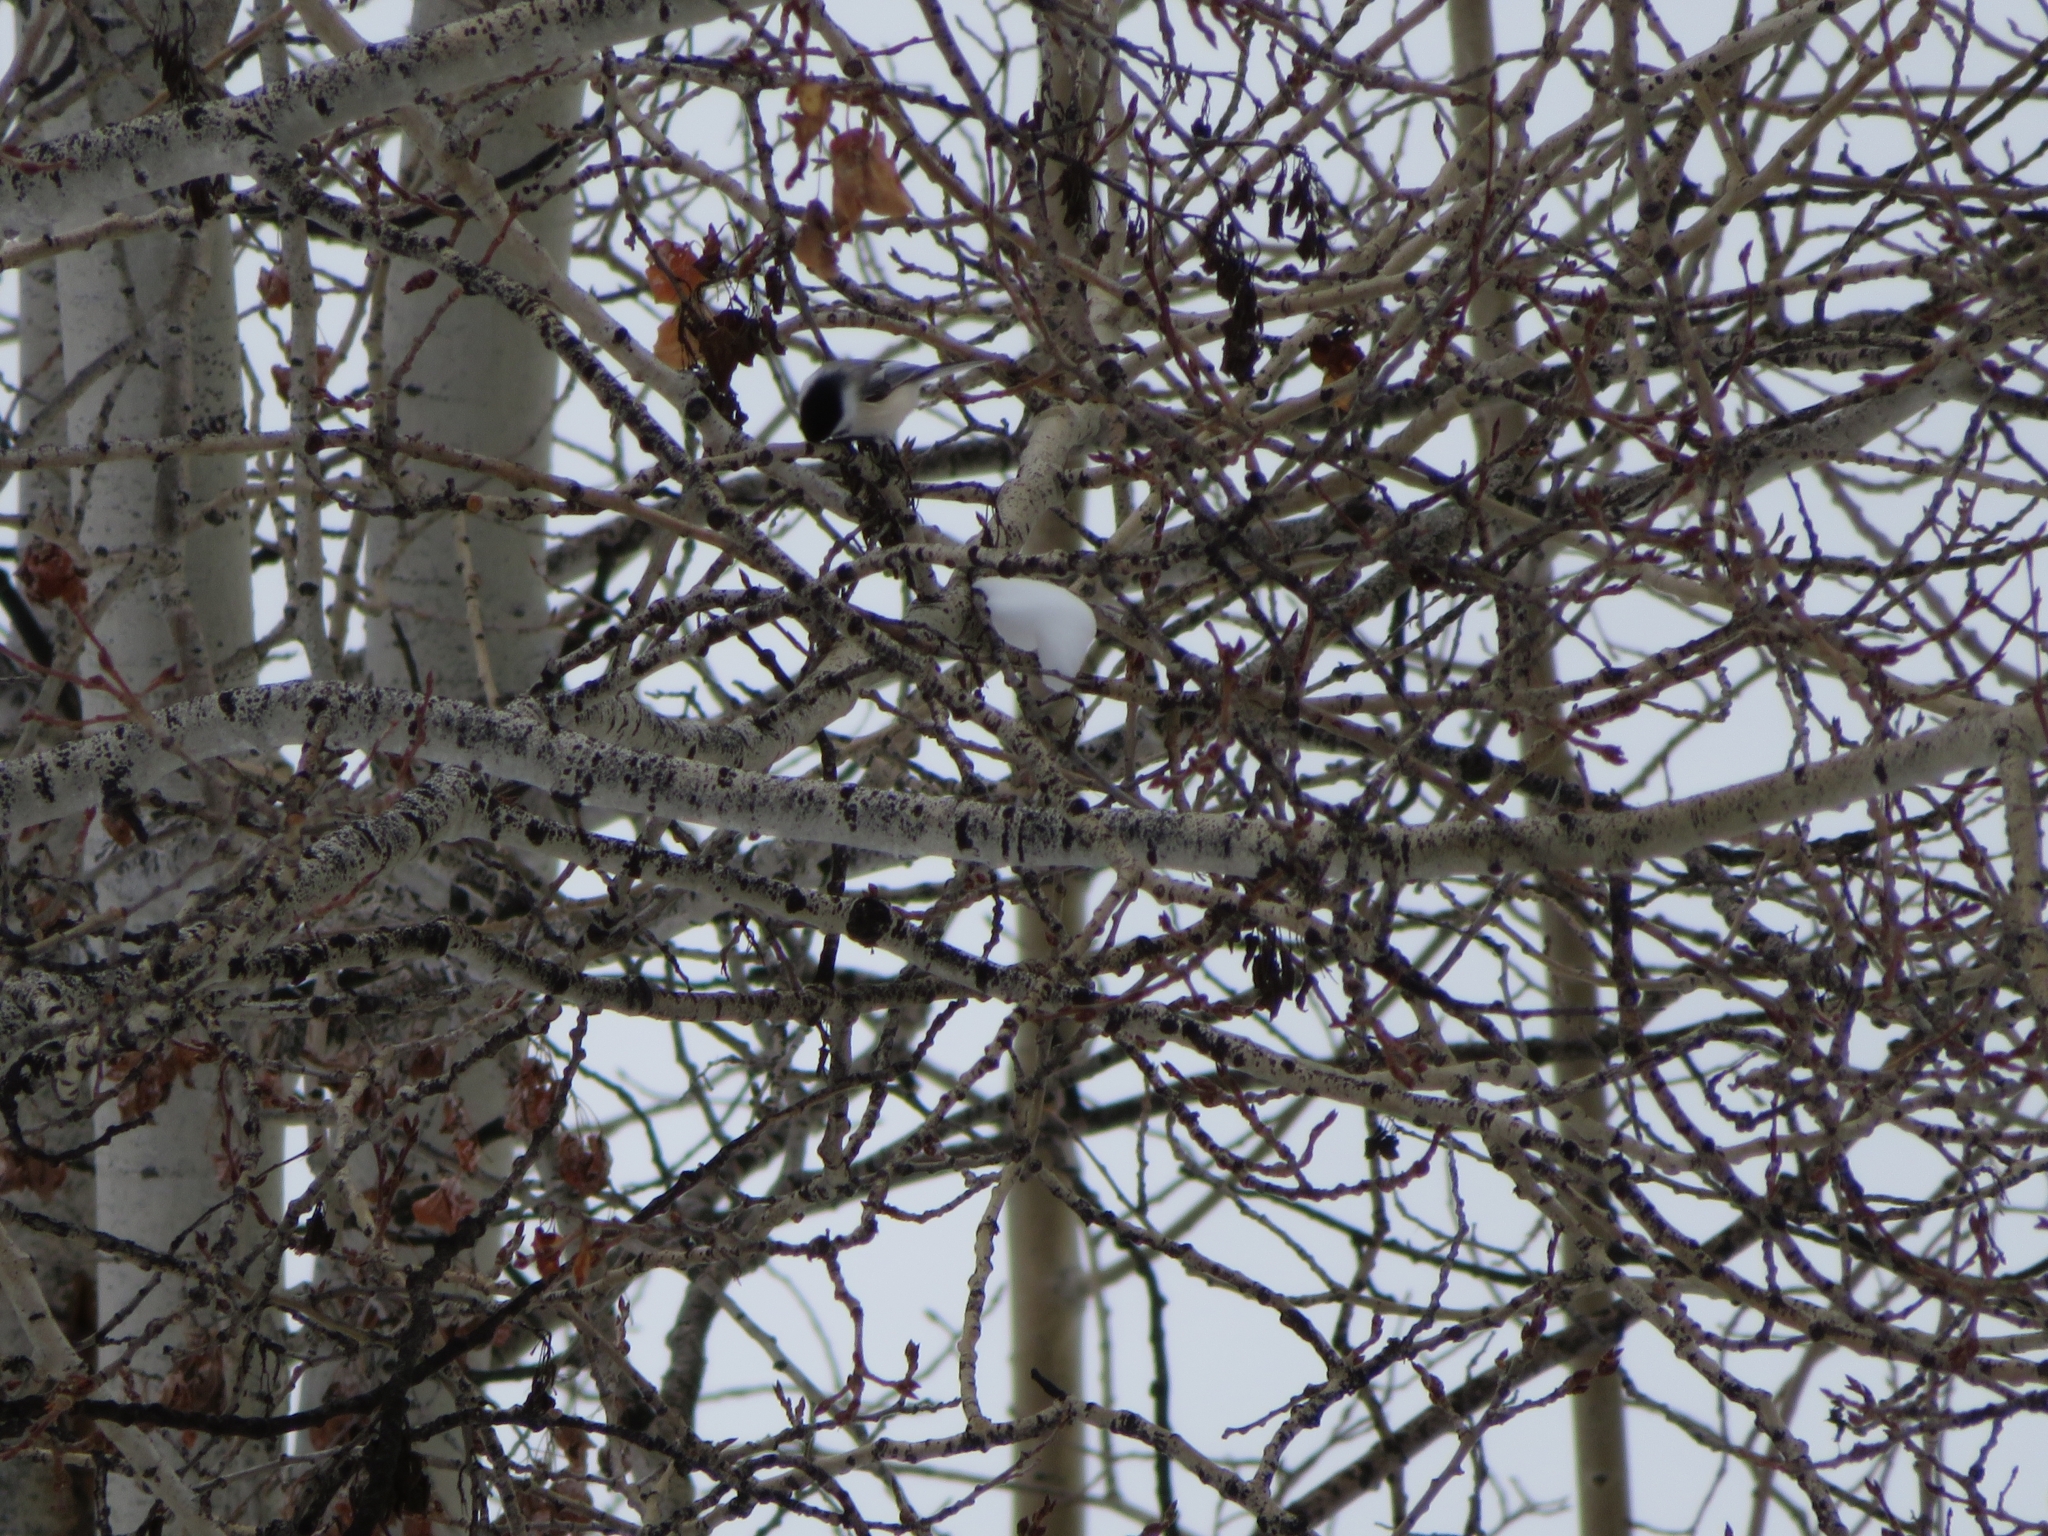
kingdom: Animalia
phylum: Chordata
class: Aves
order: Passeriformes
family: Paridae
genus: Poecile
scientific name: Poecile atricapillus
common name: Black-capped chickadee
